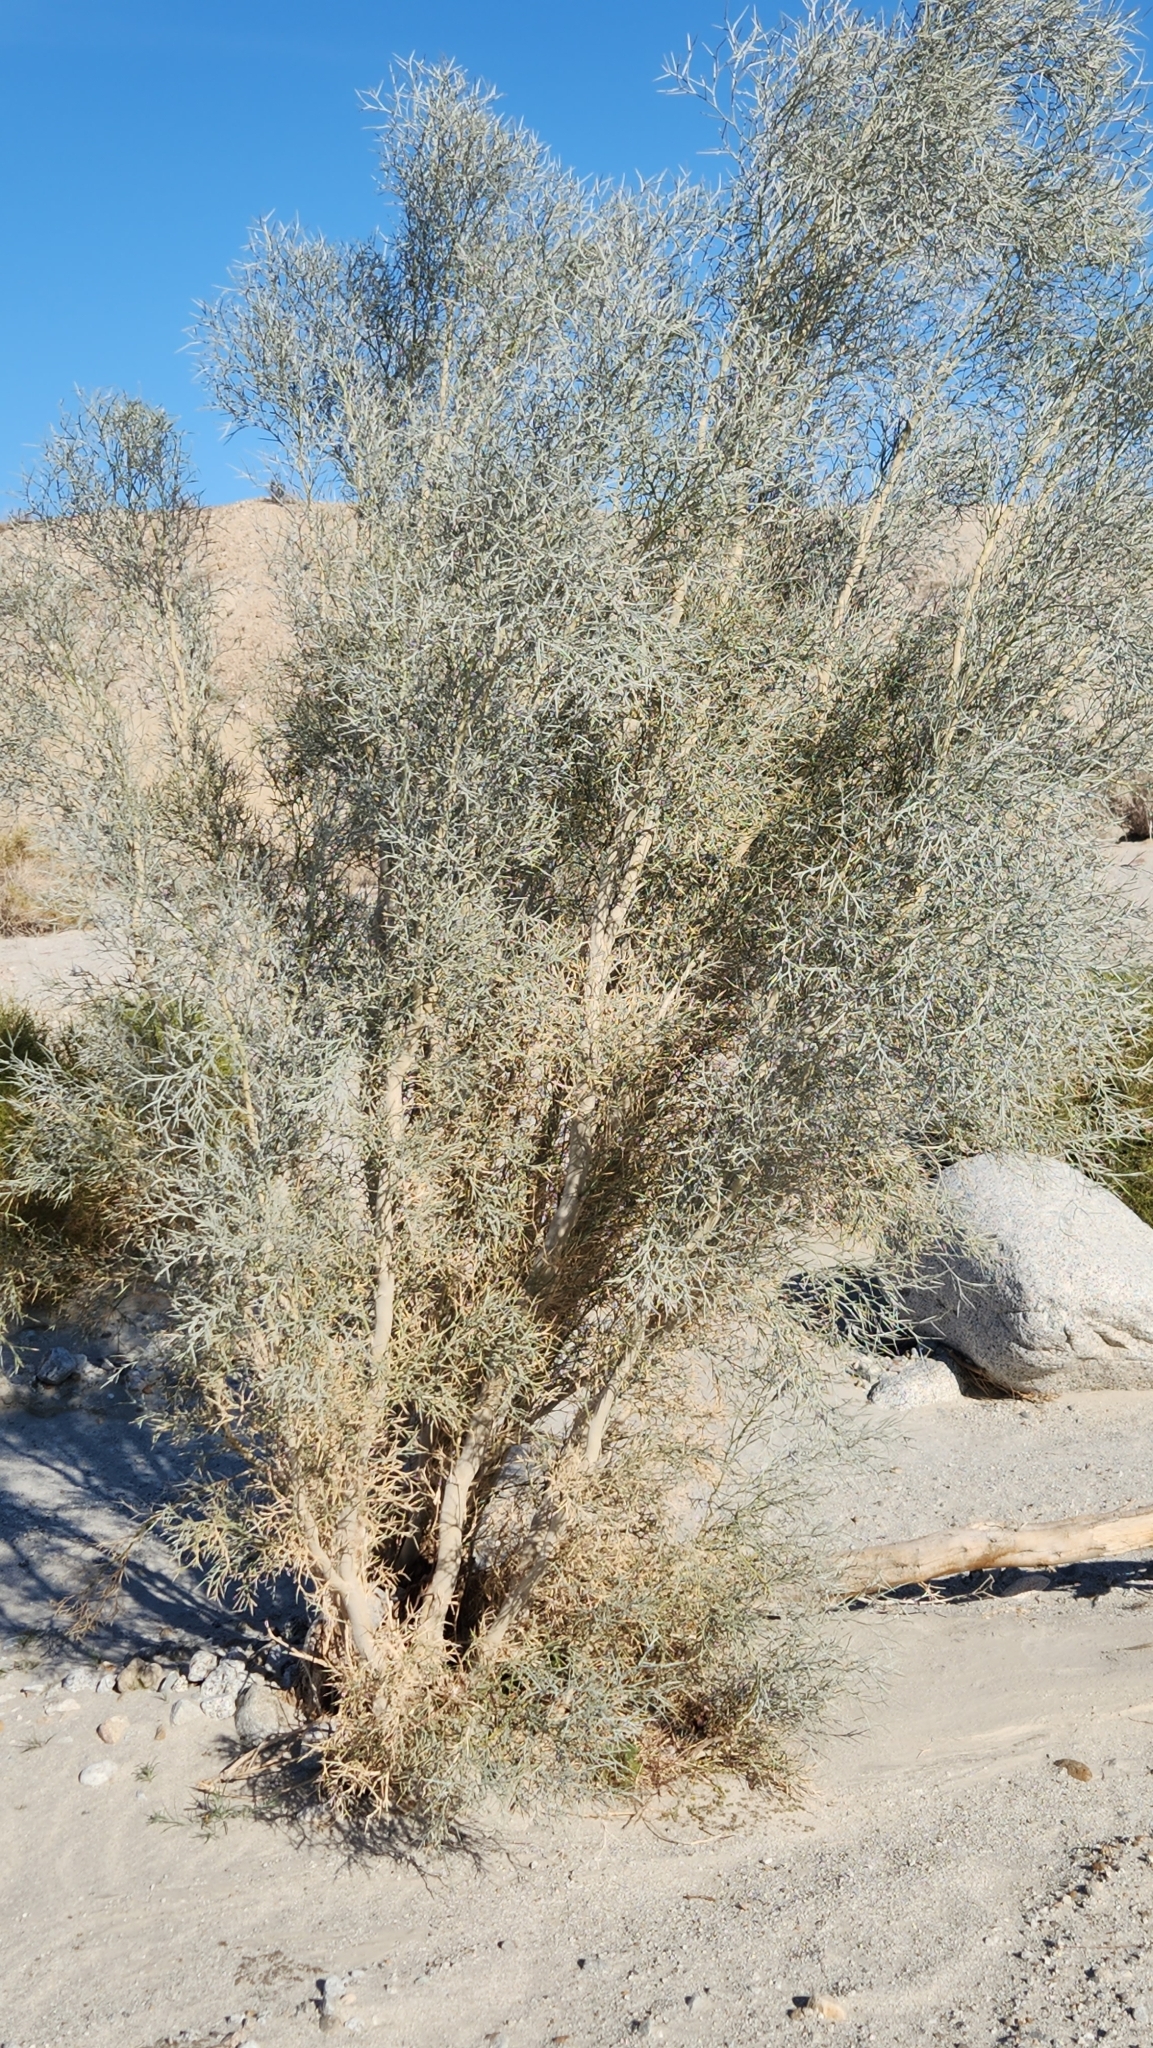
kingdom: Plantae
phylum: Tracheophyta
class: Magnoliopsida
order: Fabales
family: Fabaceae
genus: Psorothamnus
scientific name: Psorothamnus spinosus
